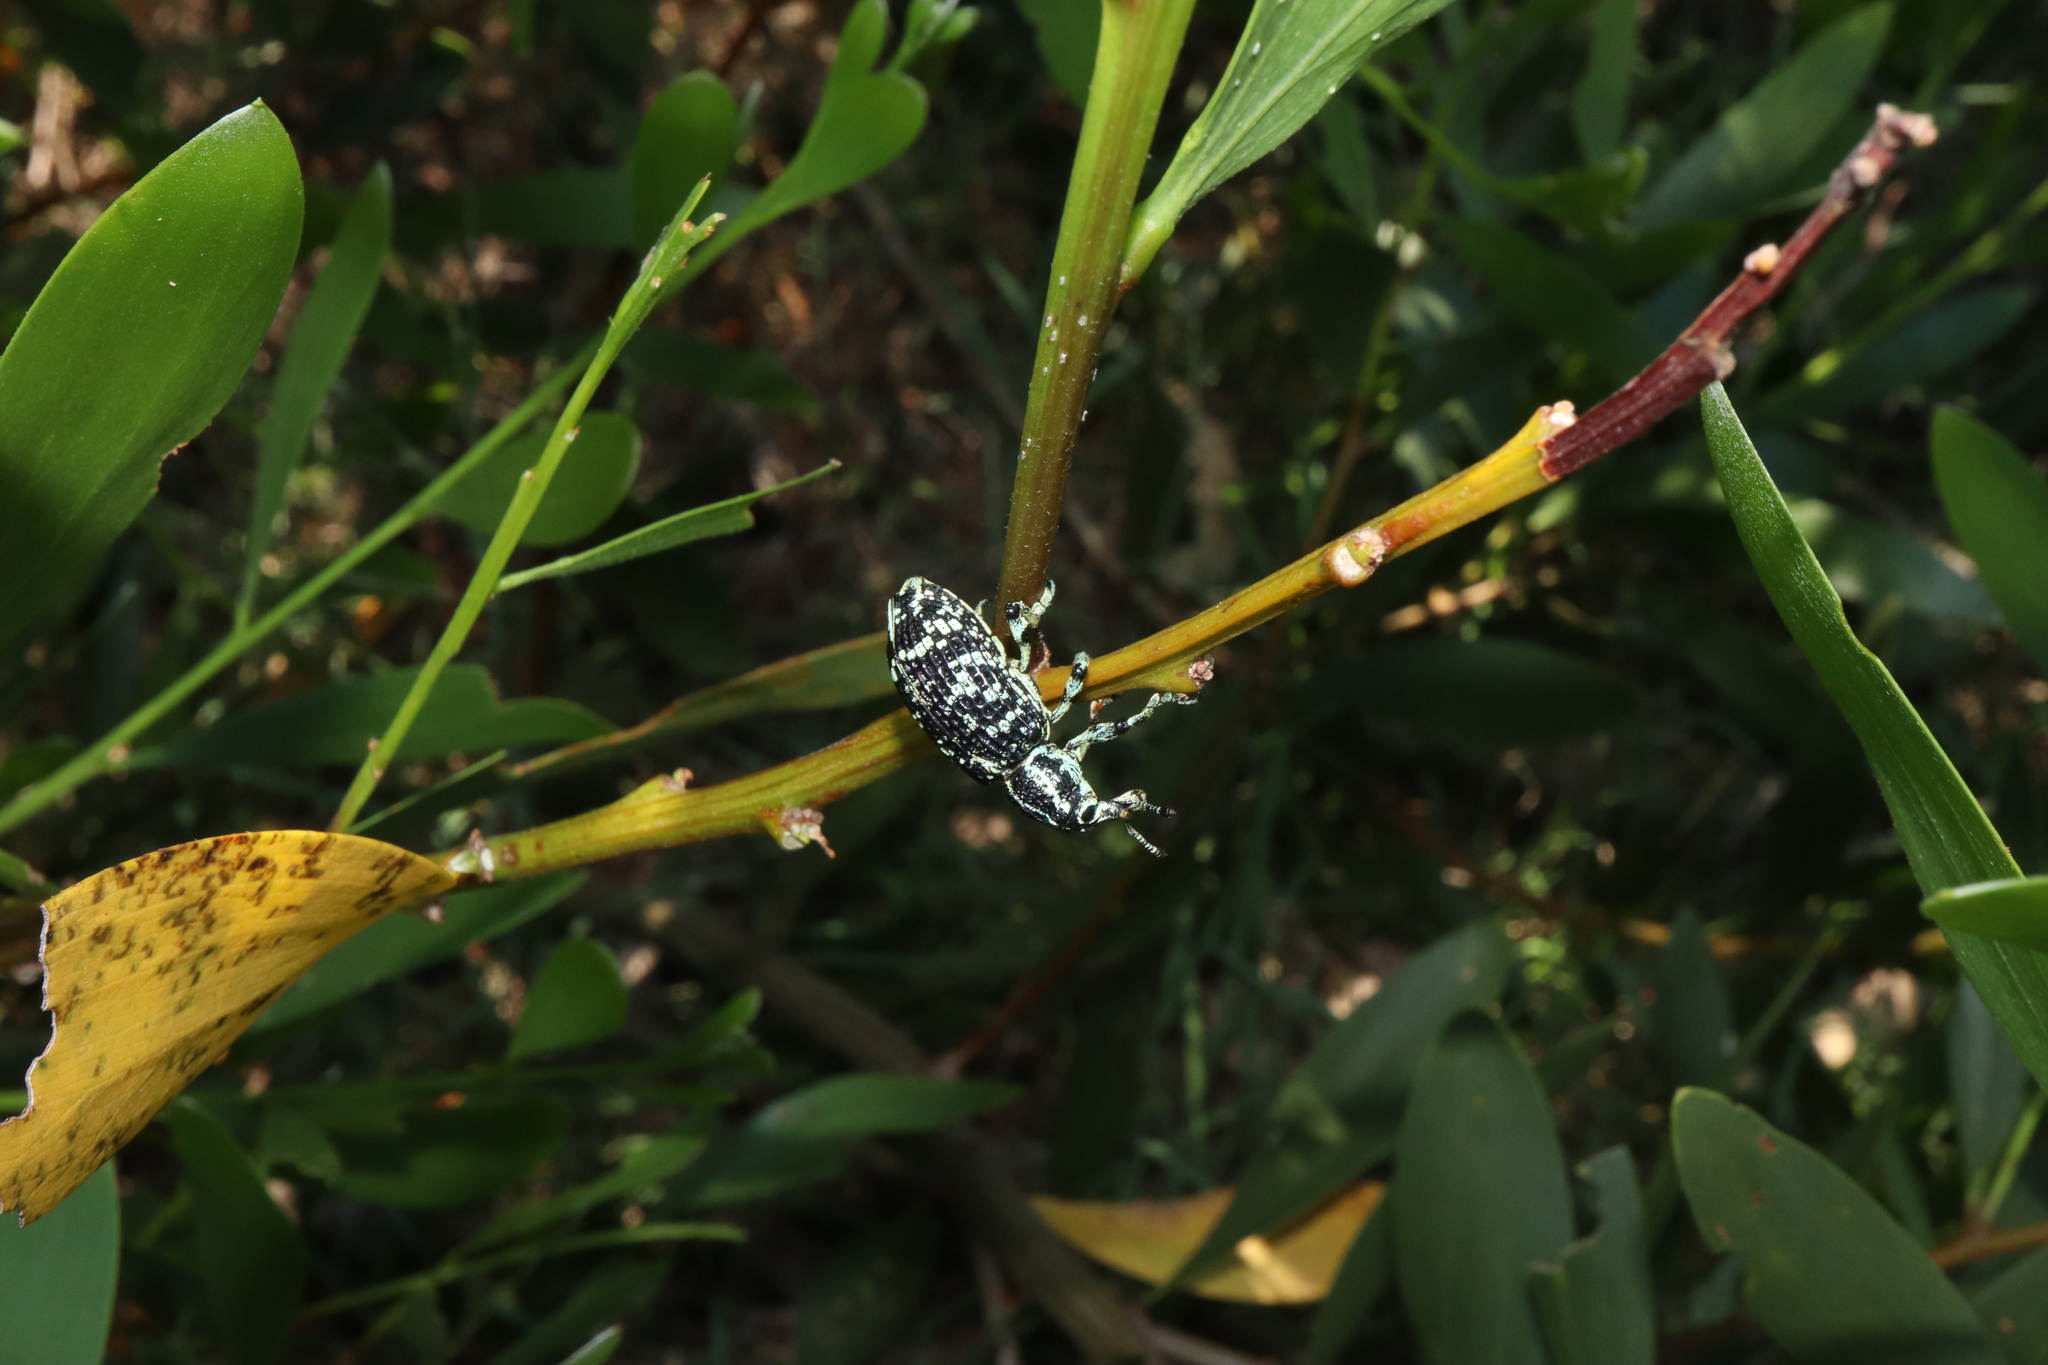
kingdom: Animalia
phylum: Arthropoda
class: Insecta
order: Coleoptera
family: Curculionidae
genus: Chrysolopus
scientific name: Chrysolopus spectabilis
